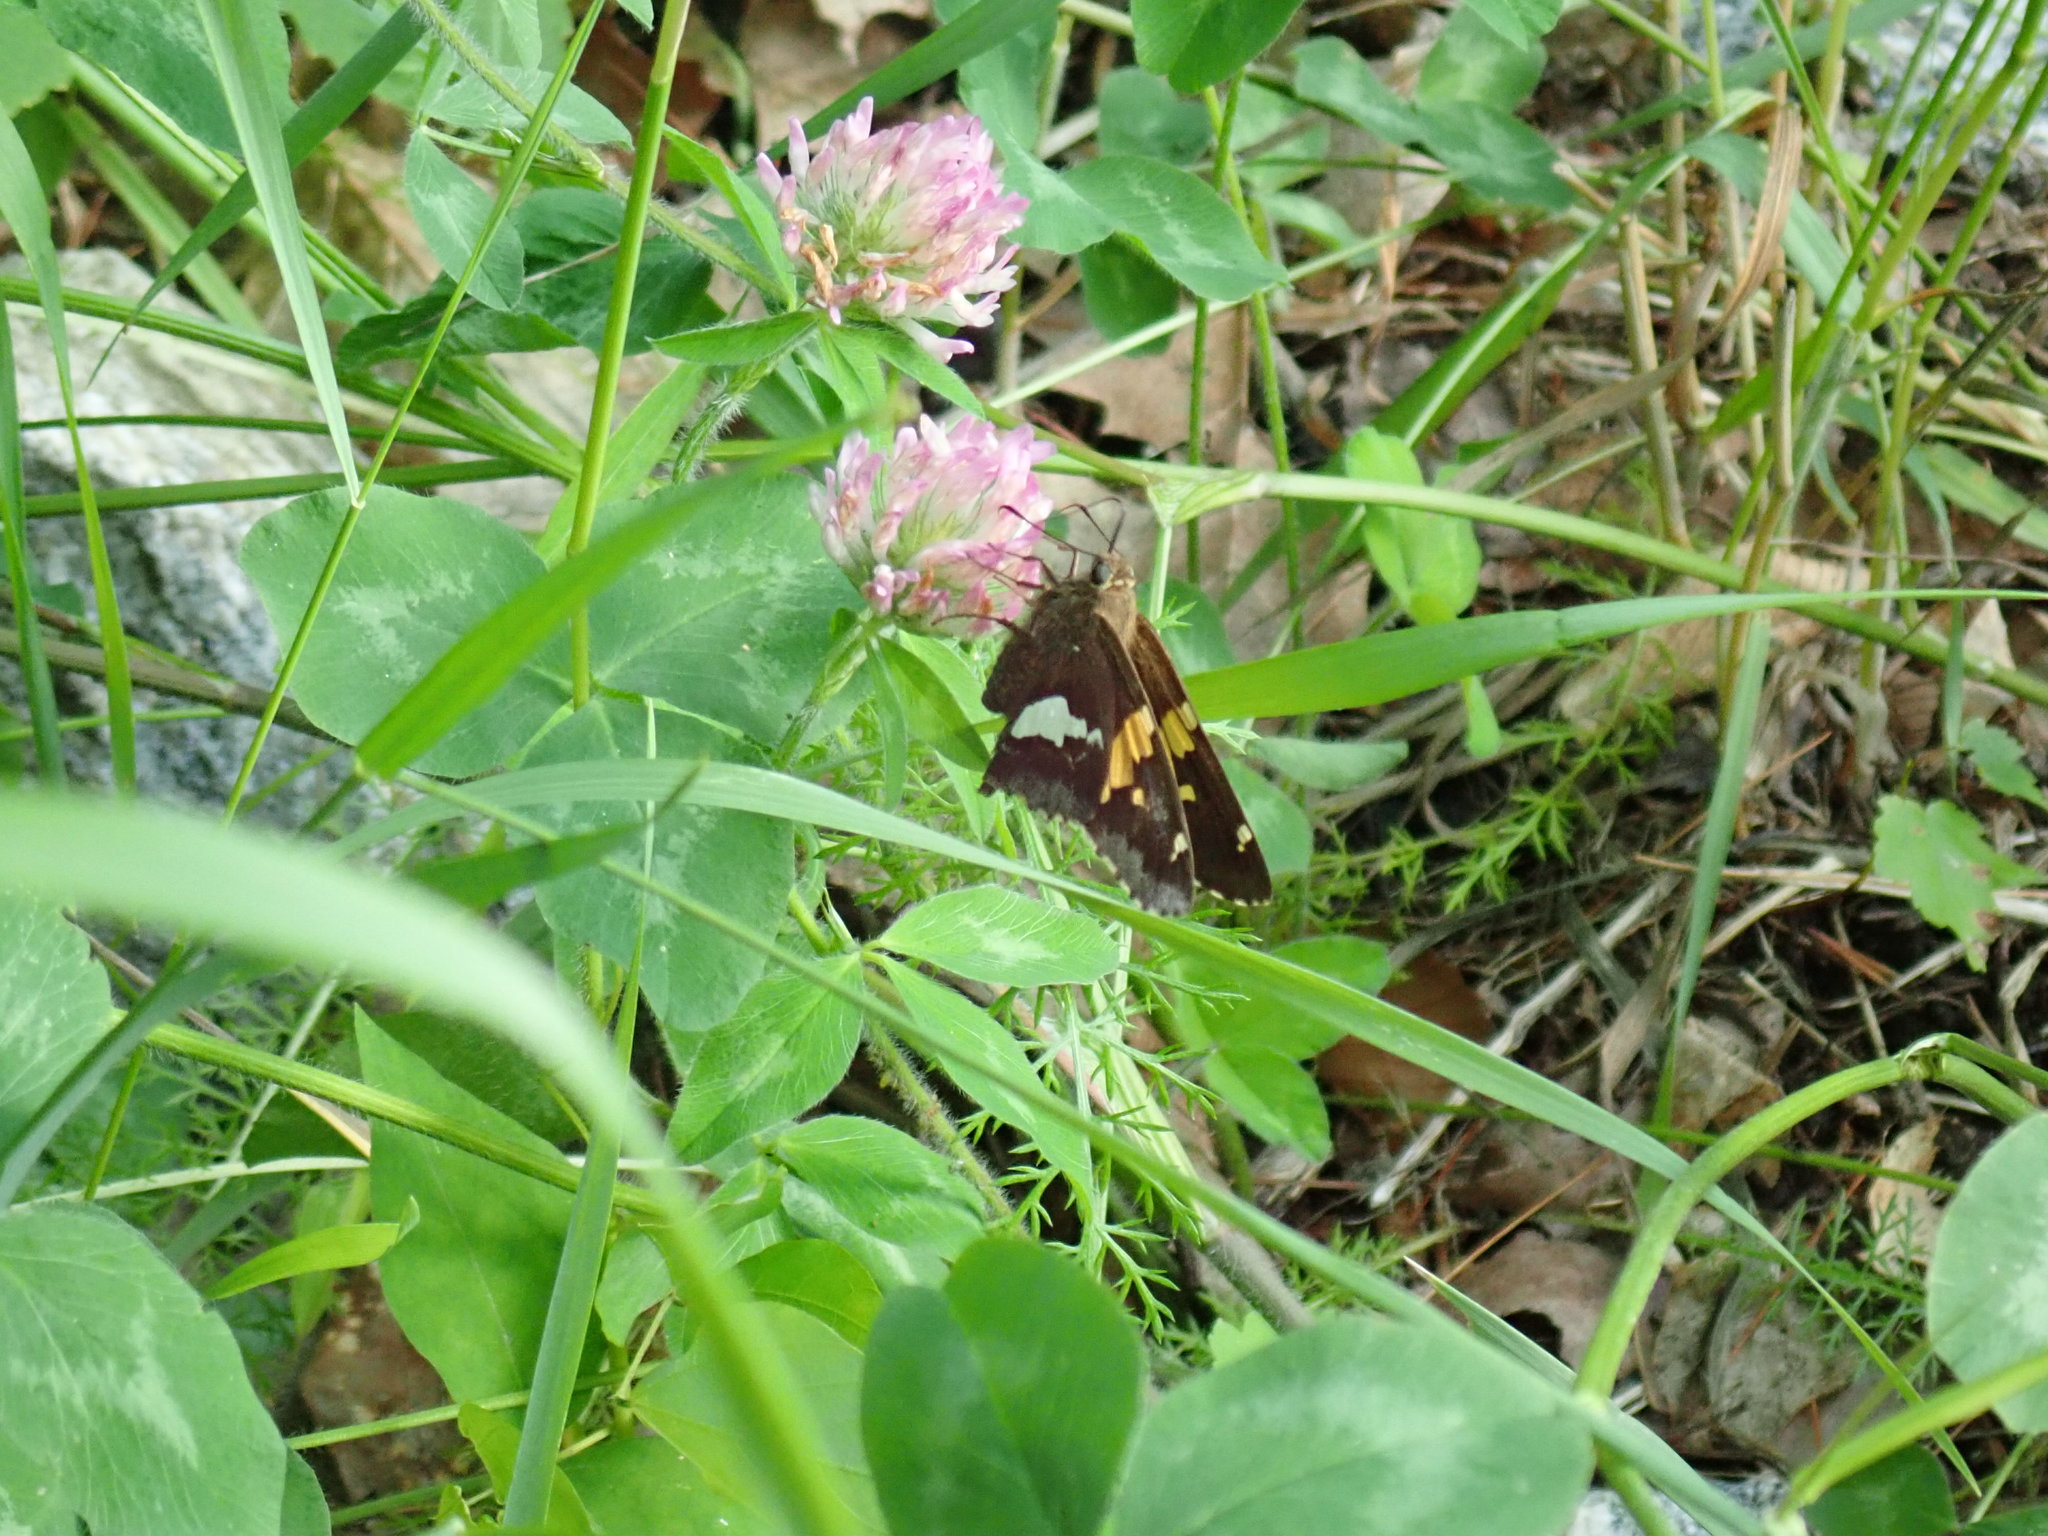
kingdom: Animalia
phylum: Arthropoda
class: Insecta
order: Lepidoptera
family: Hesperiidae
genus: Epargyreus
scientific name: Epargyreus clarus
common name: Silver-spotted skipper
